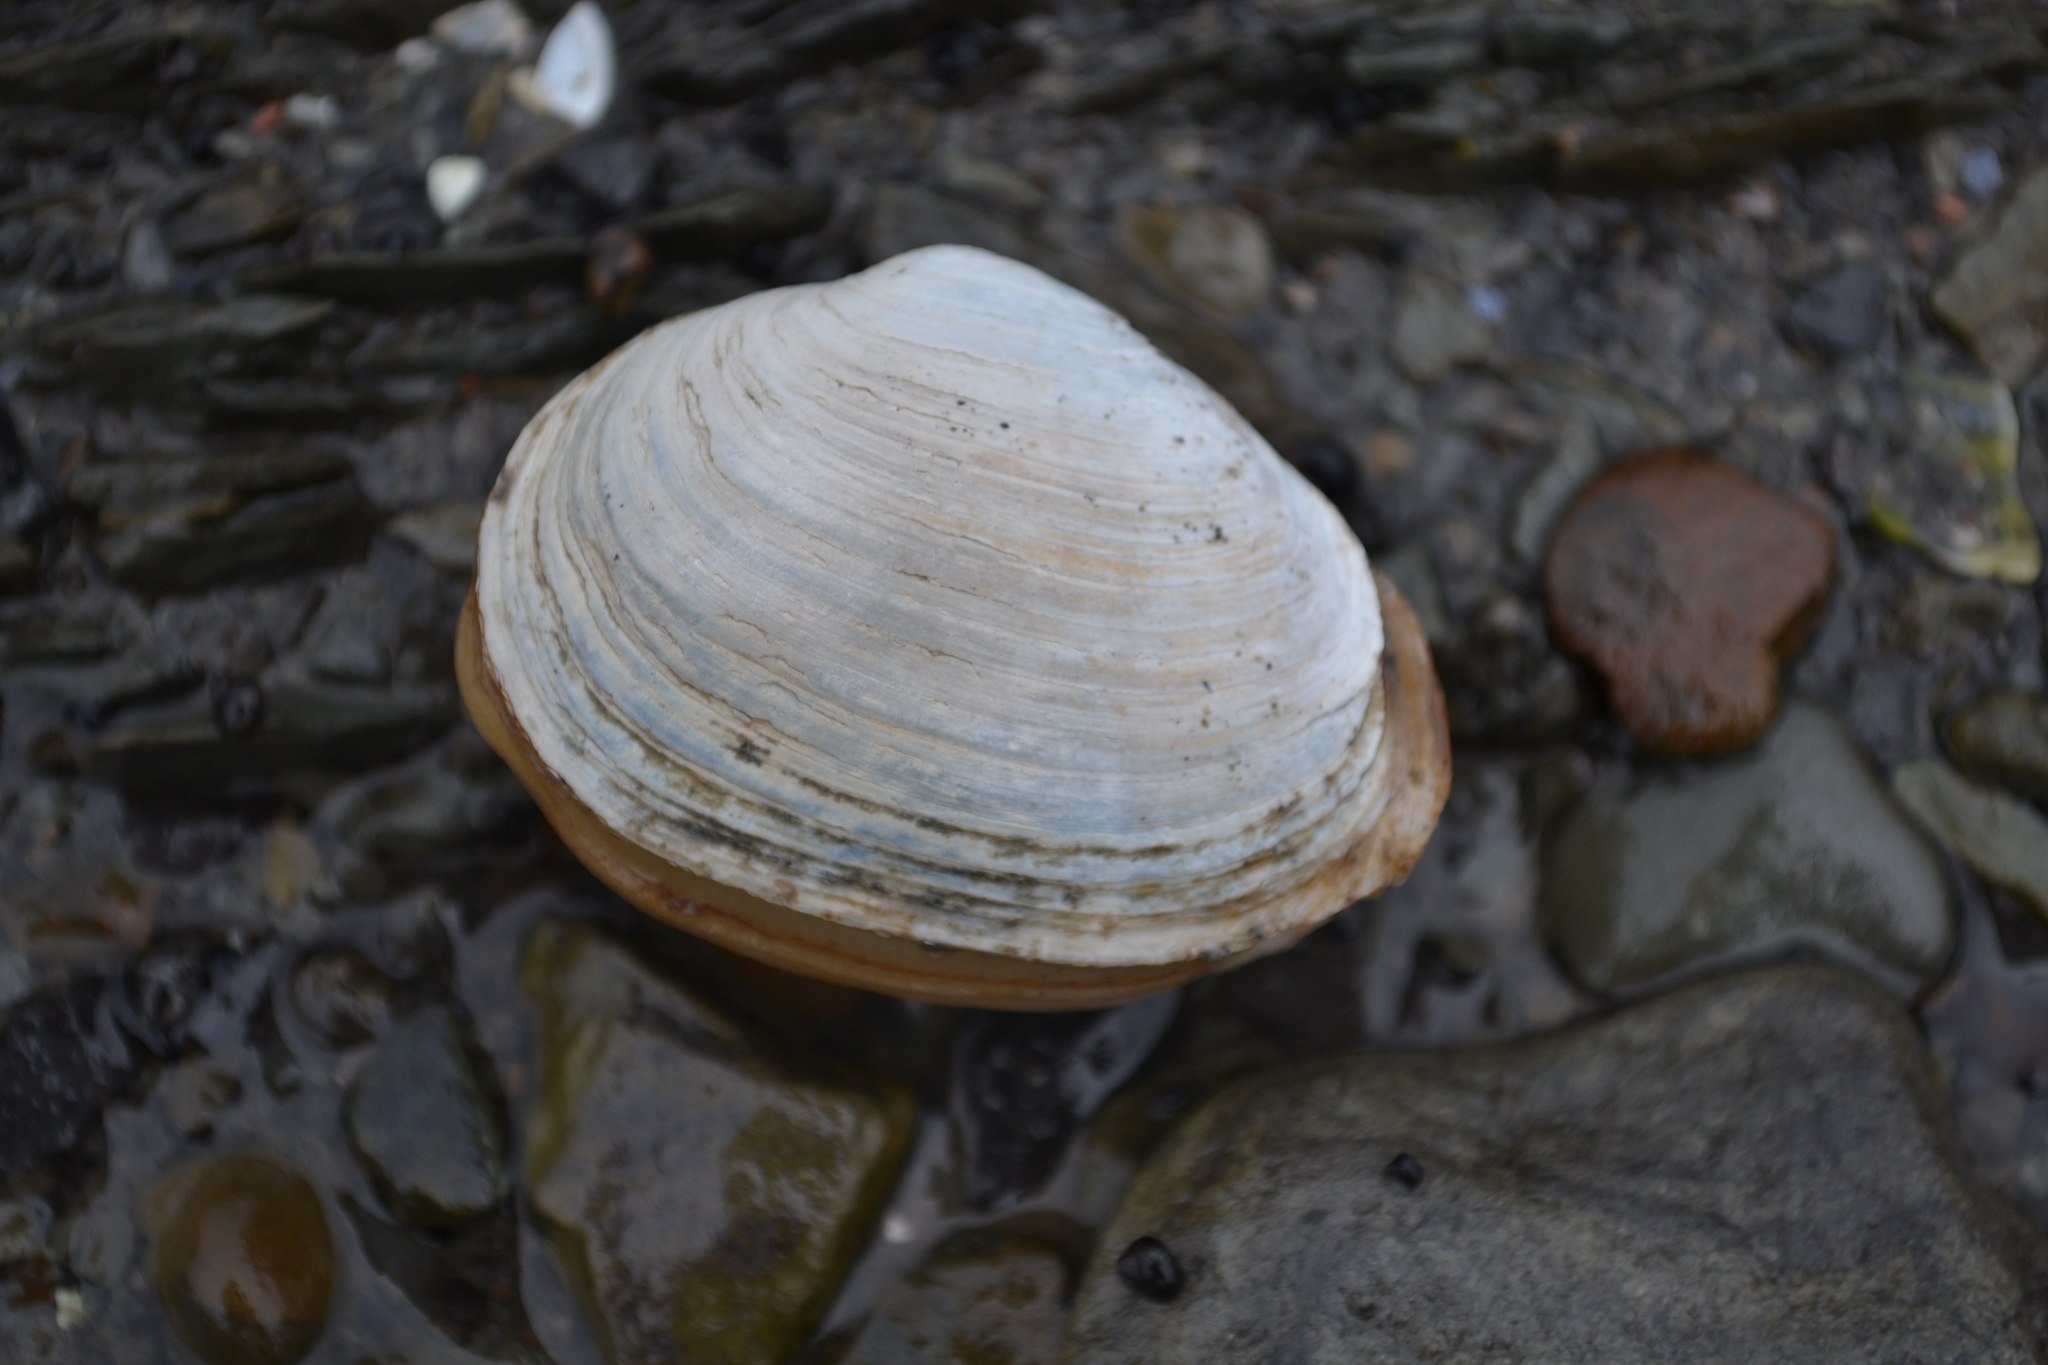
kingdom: Animalia
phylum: Mollusca
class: Bivalvia
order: Myida
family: Myidae
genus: Mya
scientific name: Mya arenaria
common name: Soft-shelled clam
